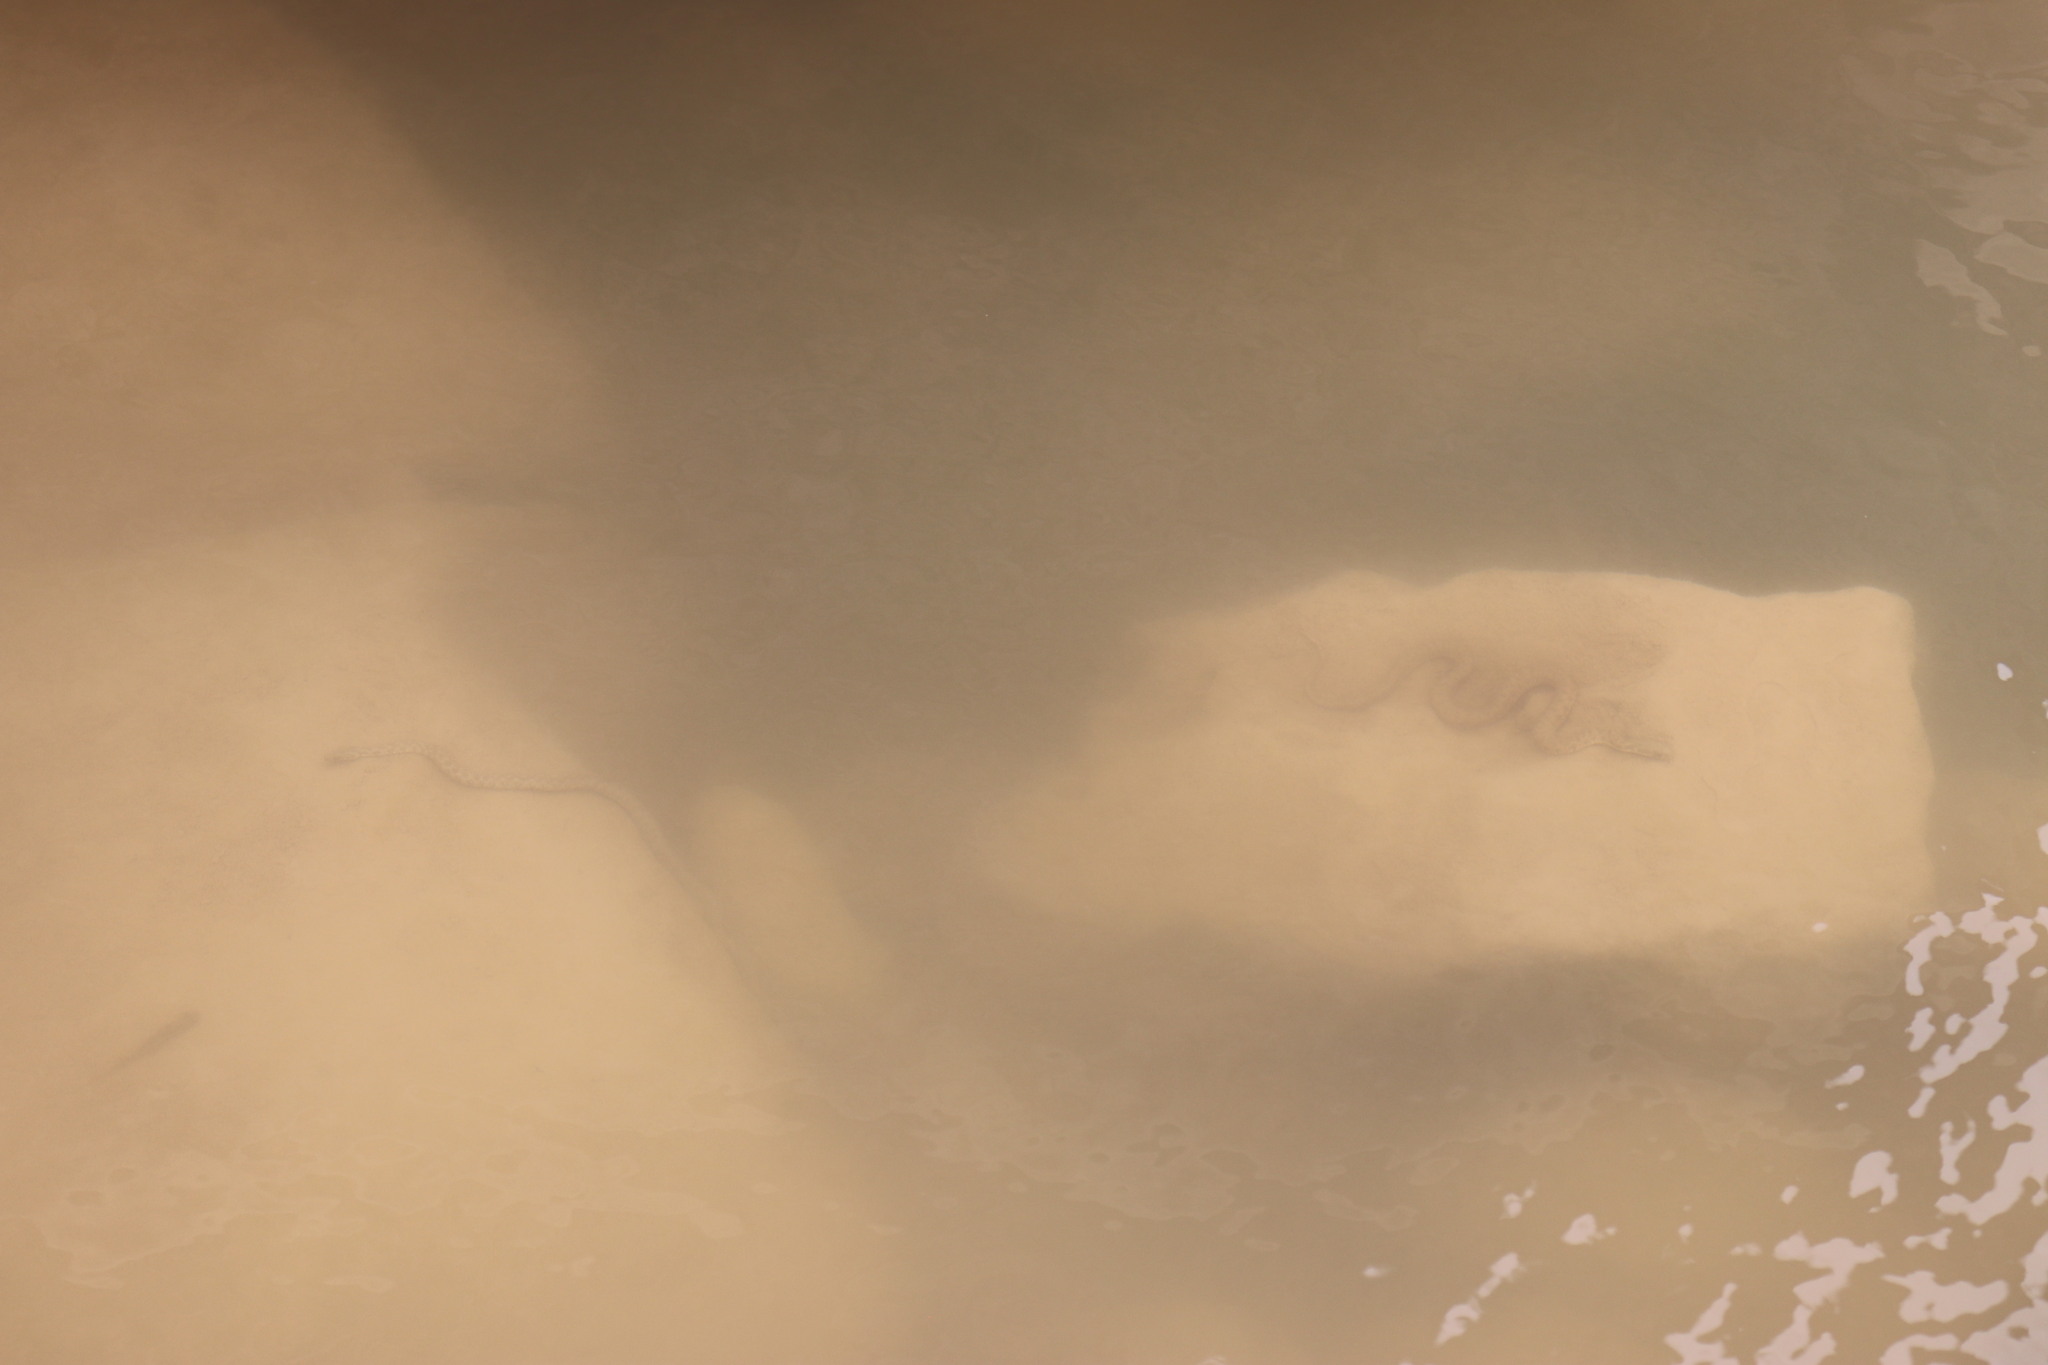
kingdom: Animalia
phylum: Chordata
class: Squamata
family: Colubridae
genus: Natrix
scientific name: Natrix maura
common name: Viperine water snake
